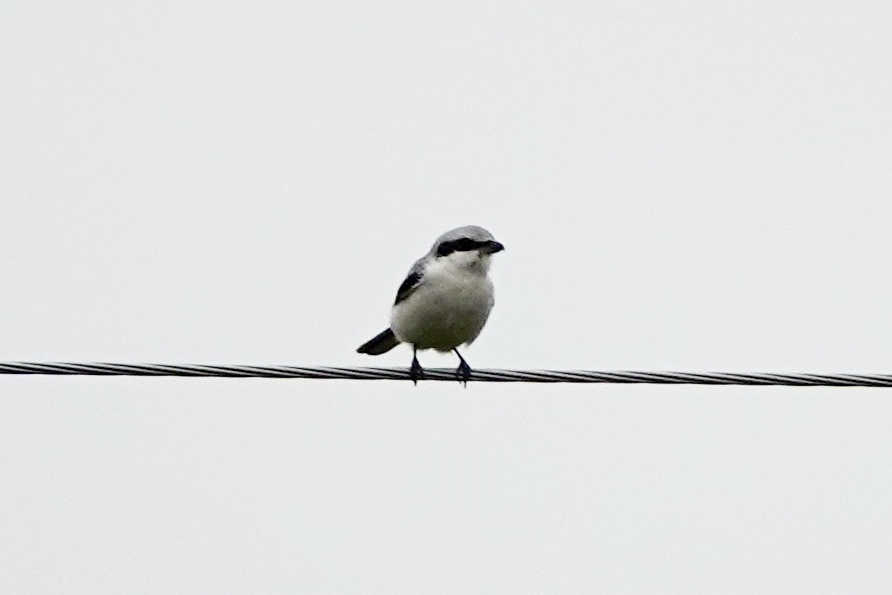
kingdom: Animalia
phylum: Chordata
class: Aves
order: Passeriformes
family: Laniidae
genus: Lanius
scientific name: Lanius excubitor
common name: Great grey shrike
